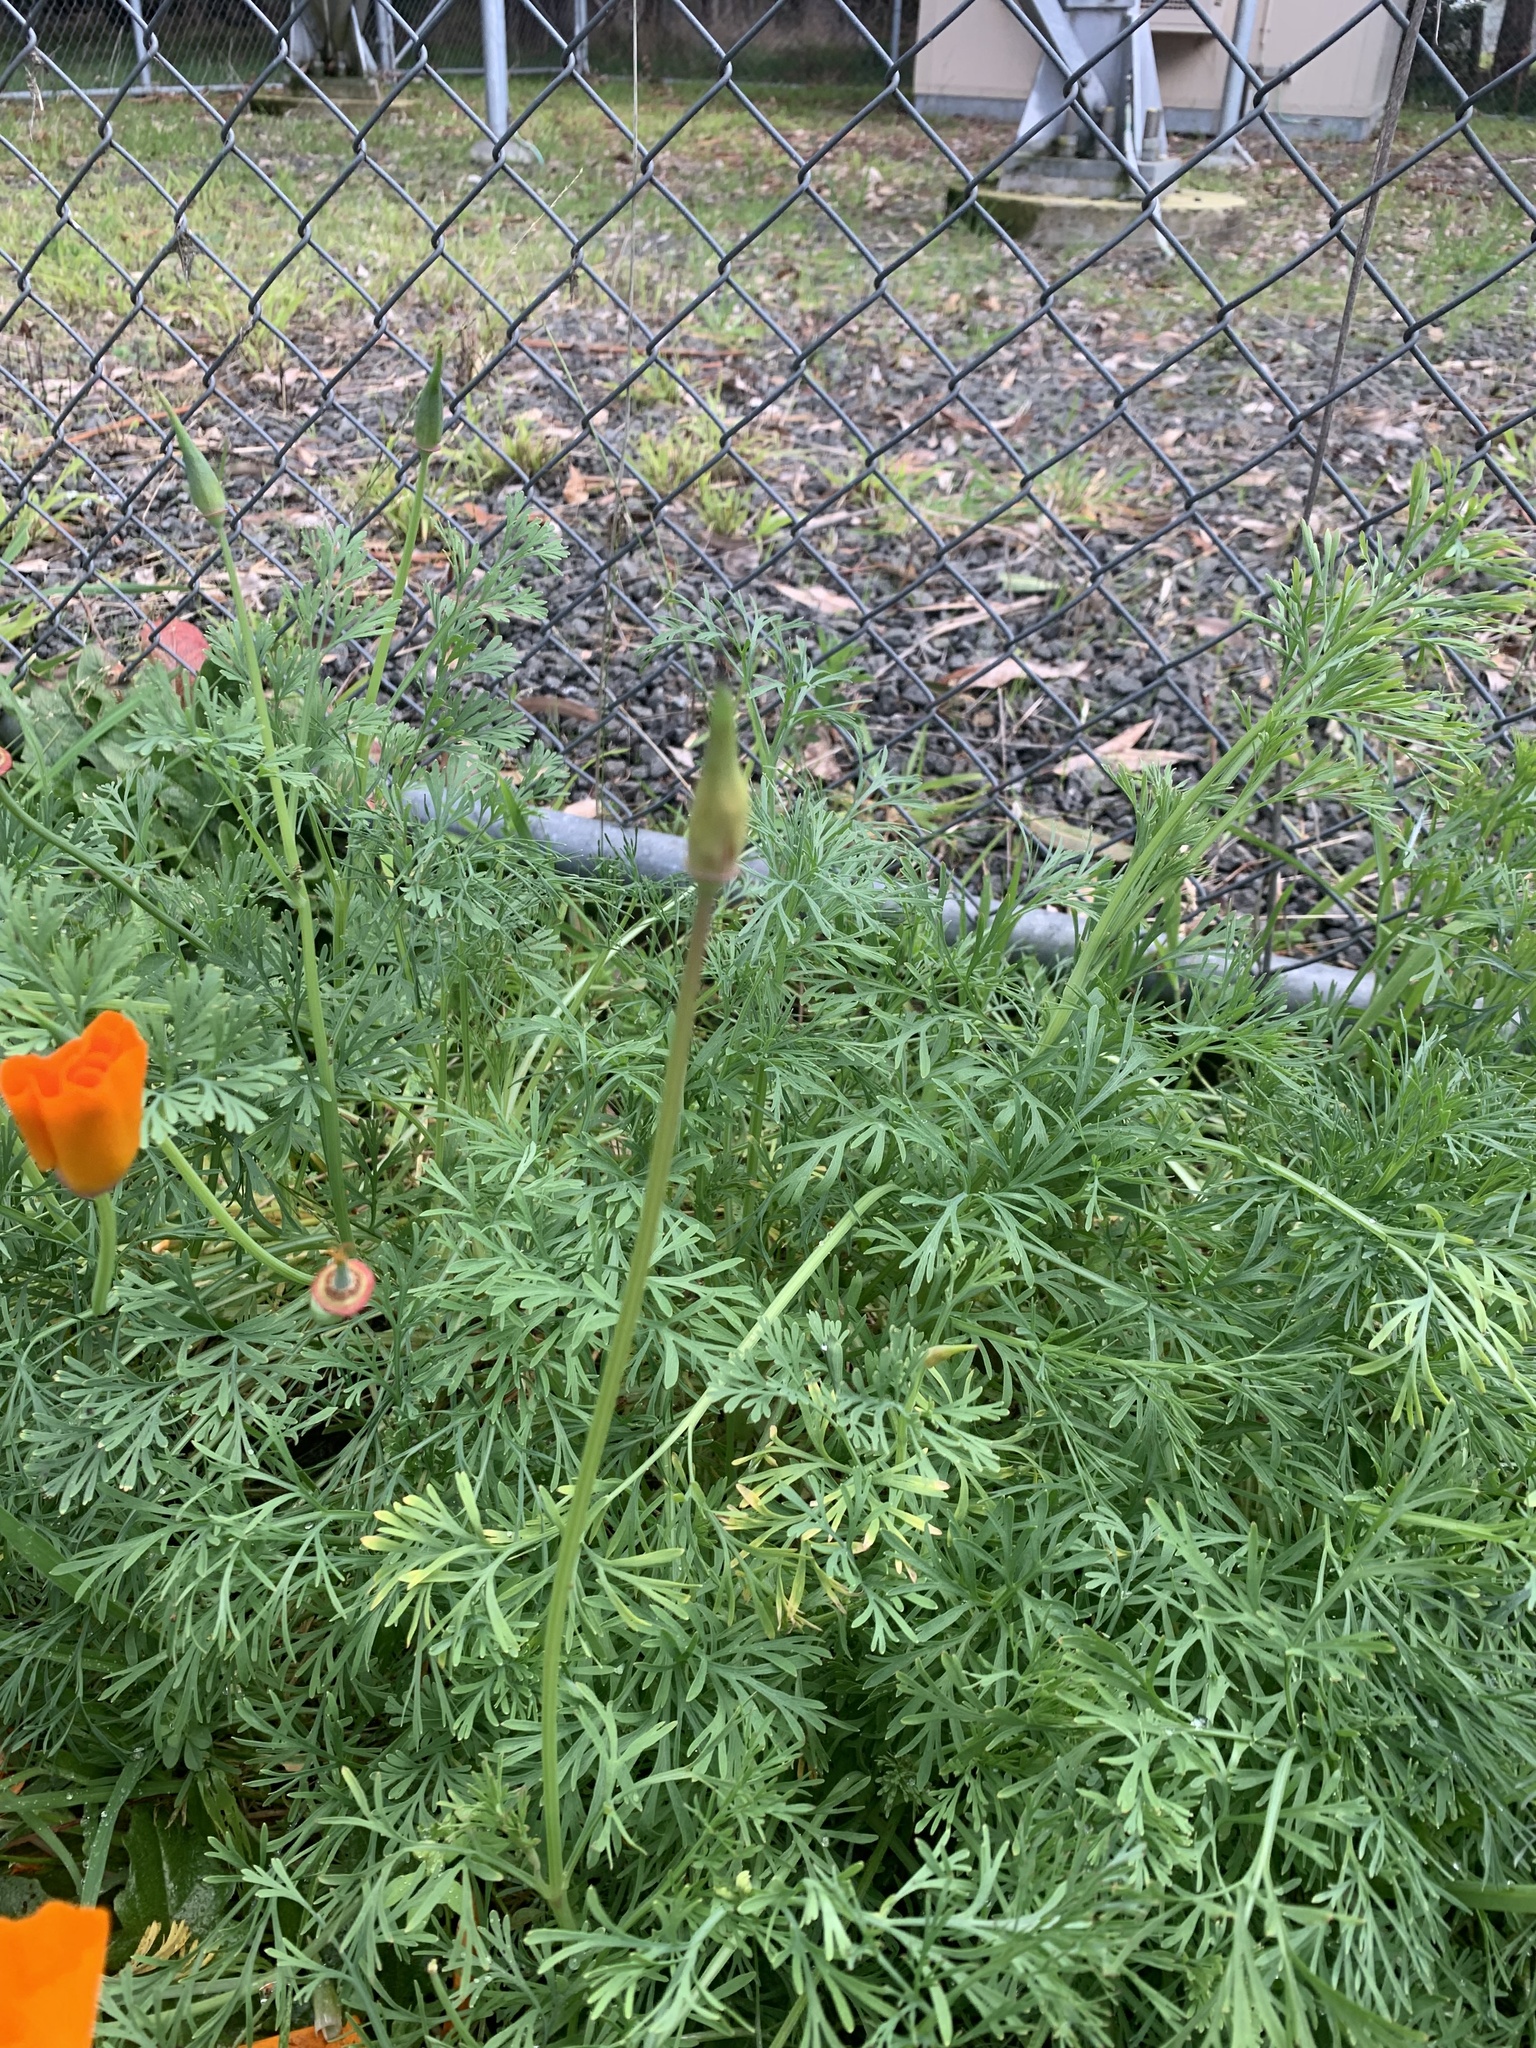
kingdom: Plantae
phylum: Tracheophyta
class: Magnoliopsida
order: Ranunculales
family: Papaveraceae
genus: Eschscholzia
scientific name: Eschscholzia californica
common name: California poppy
